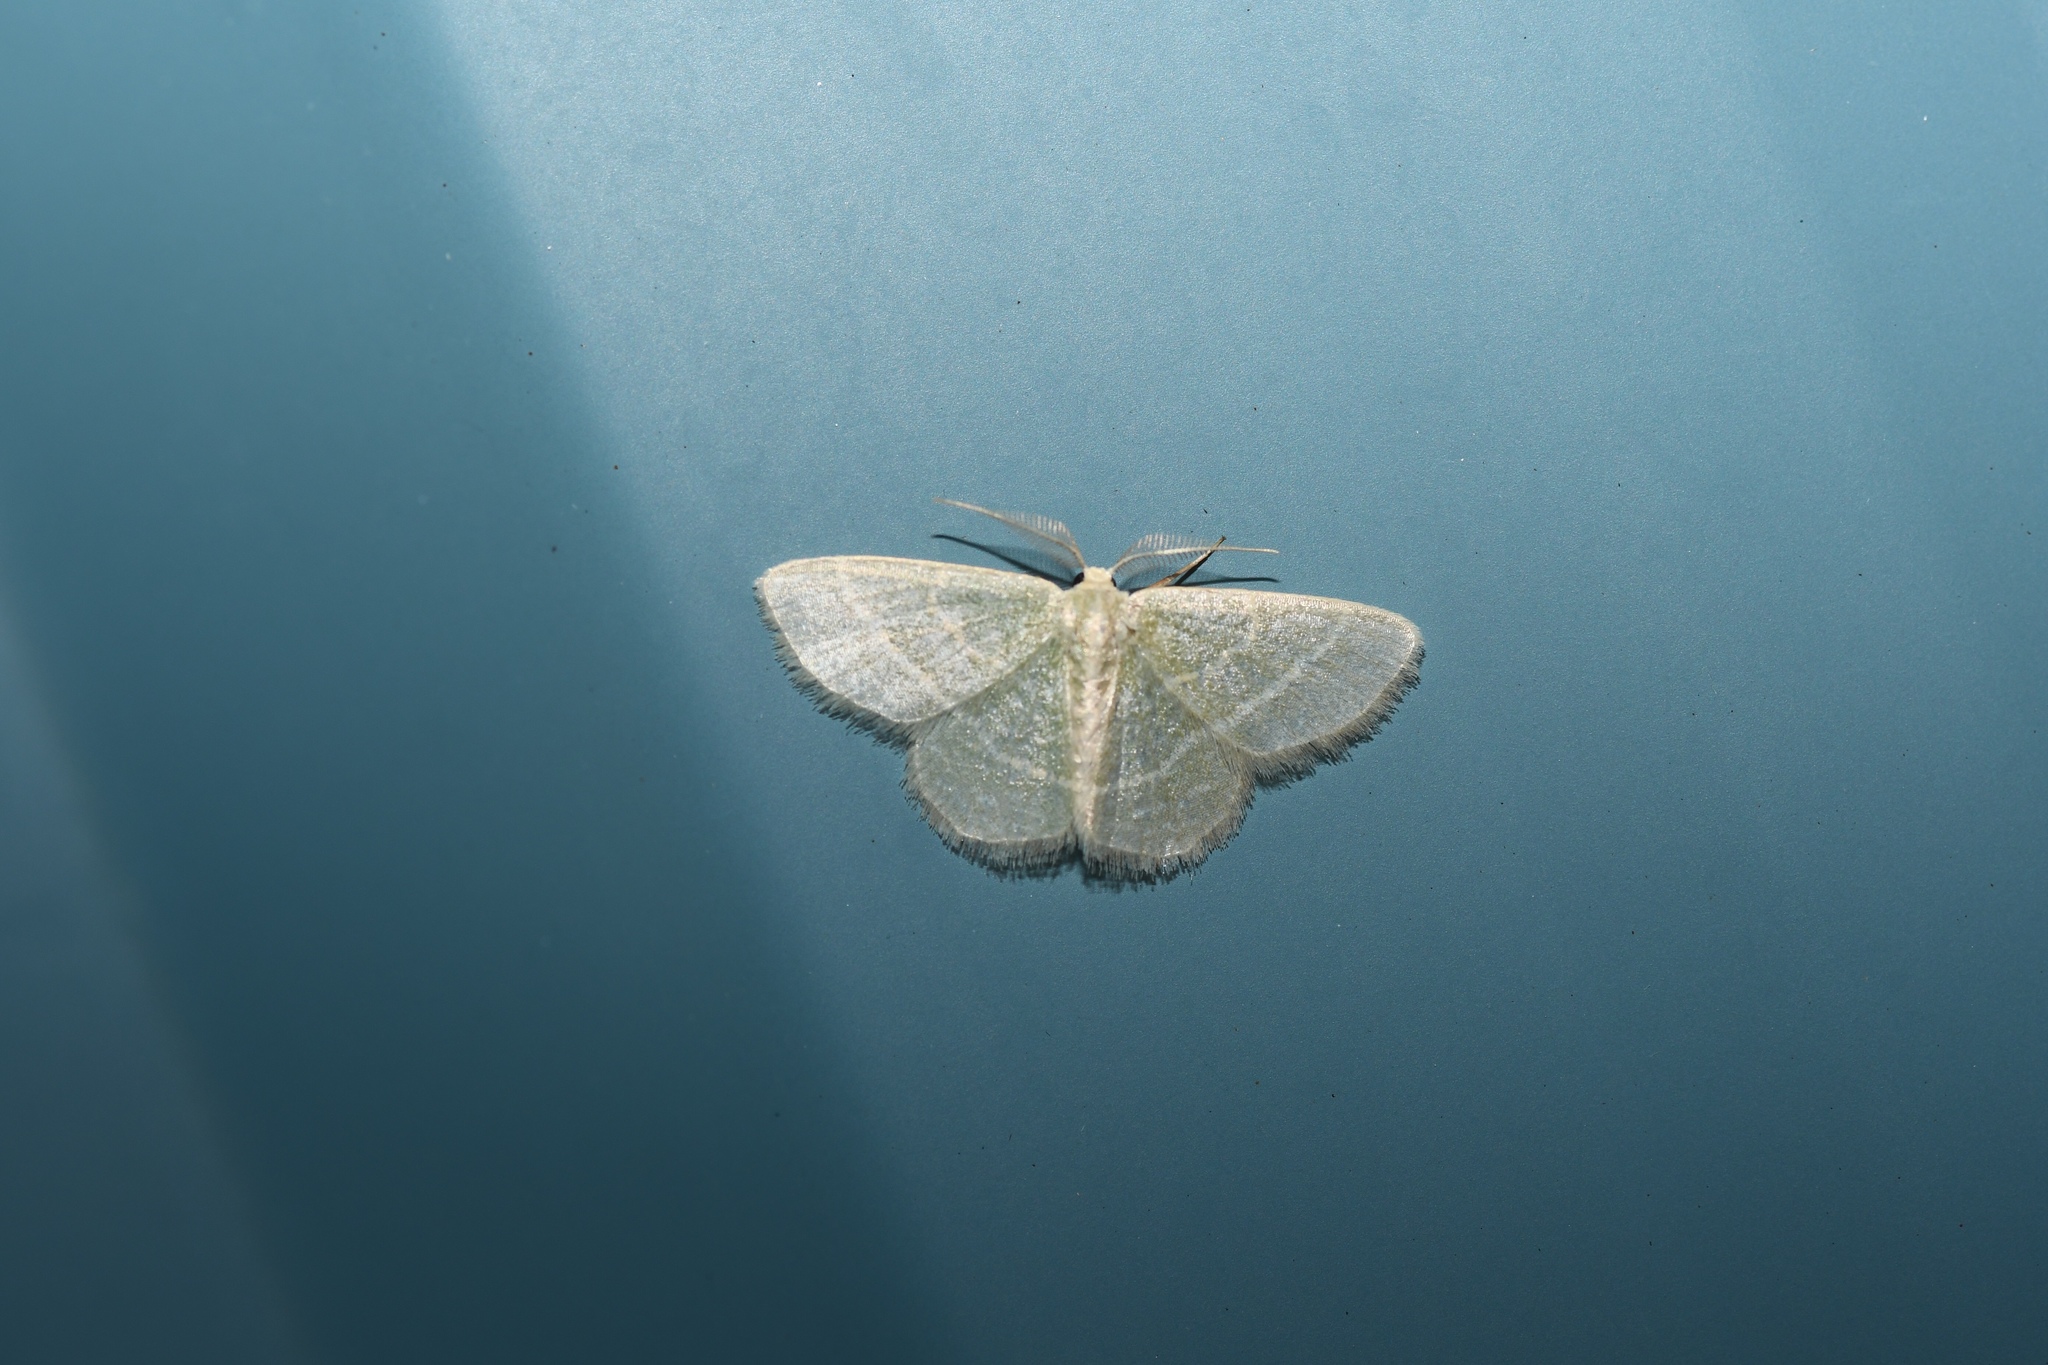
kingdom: Animalia
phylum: Arthropoda
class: Insecta
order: Lepidoptera
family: Geometridae
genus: Chlorochlamys
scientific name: Chlorochlamys chloroleucaria
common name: Blackberry looper
